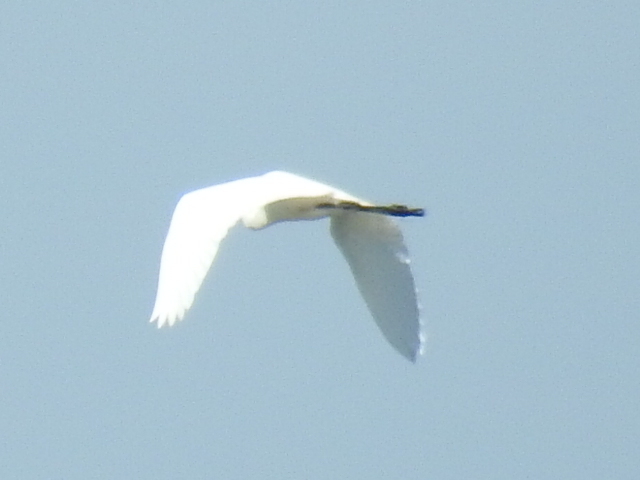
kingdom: Animalia
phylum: Chordata
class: Aves
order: Pelecaniformes
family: Ardeidae
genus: Ardea
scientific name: Ardea alba
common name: Great egret
